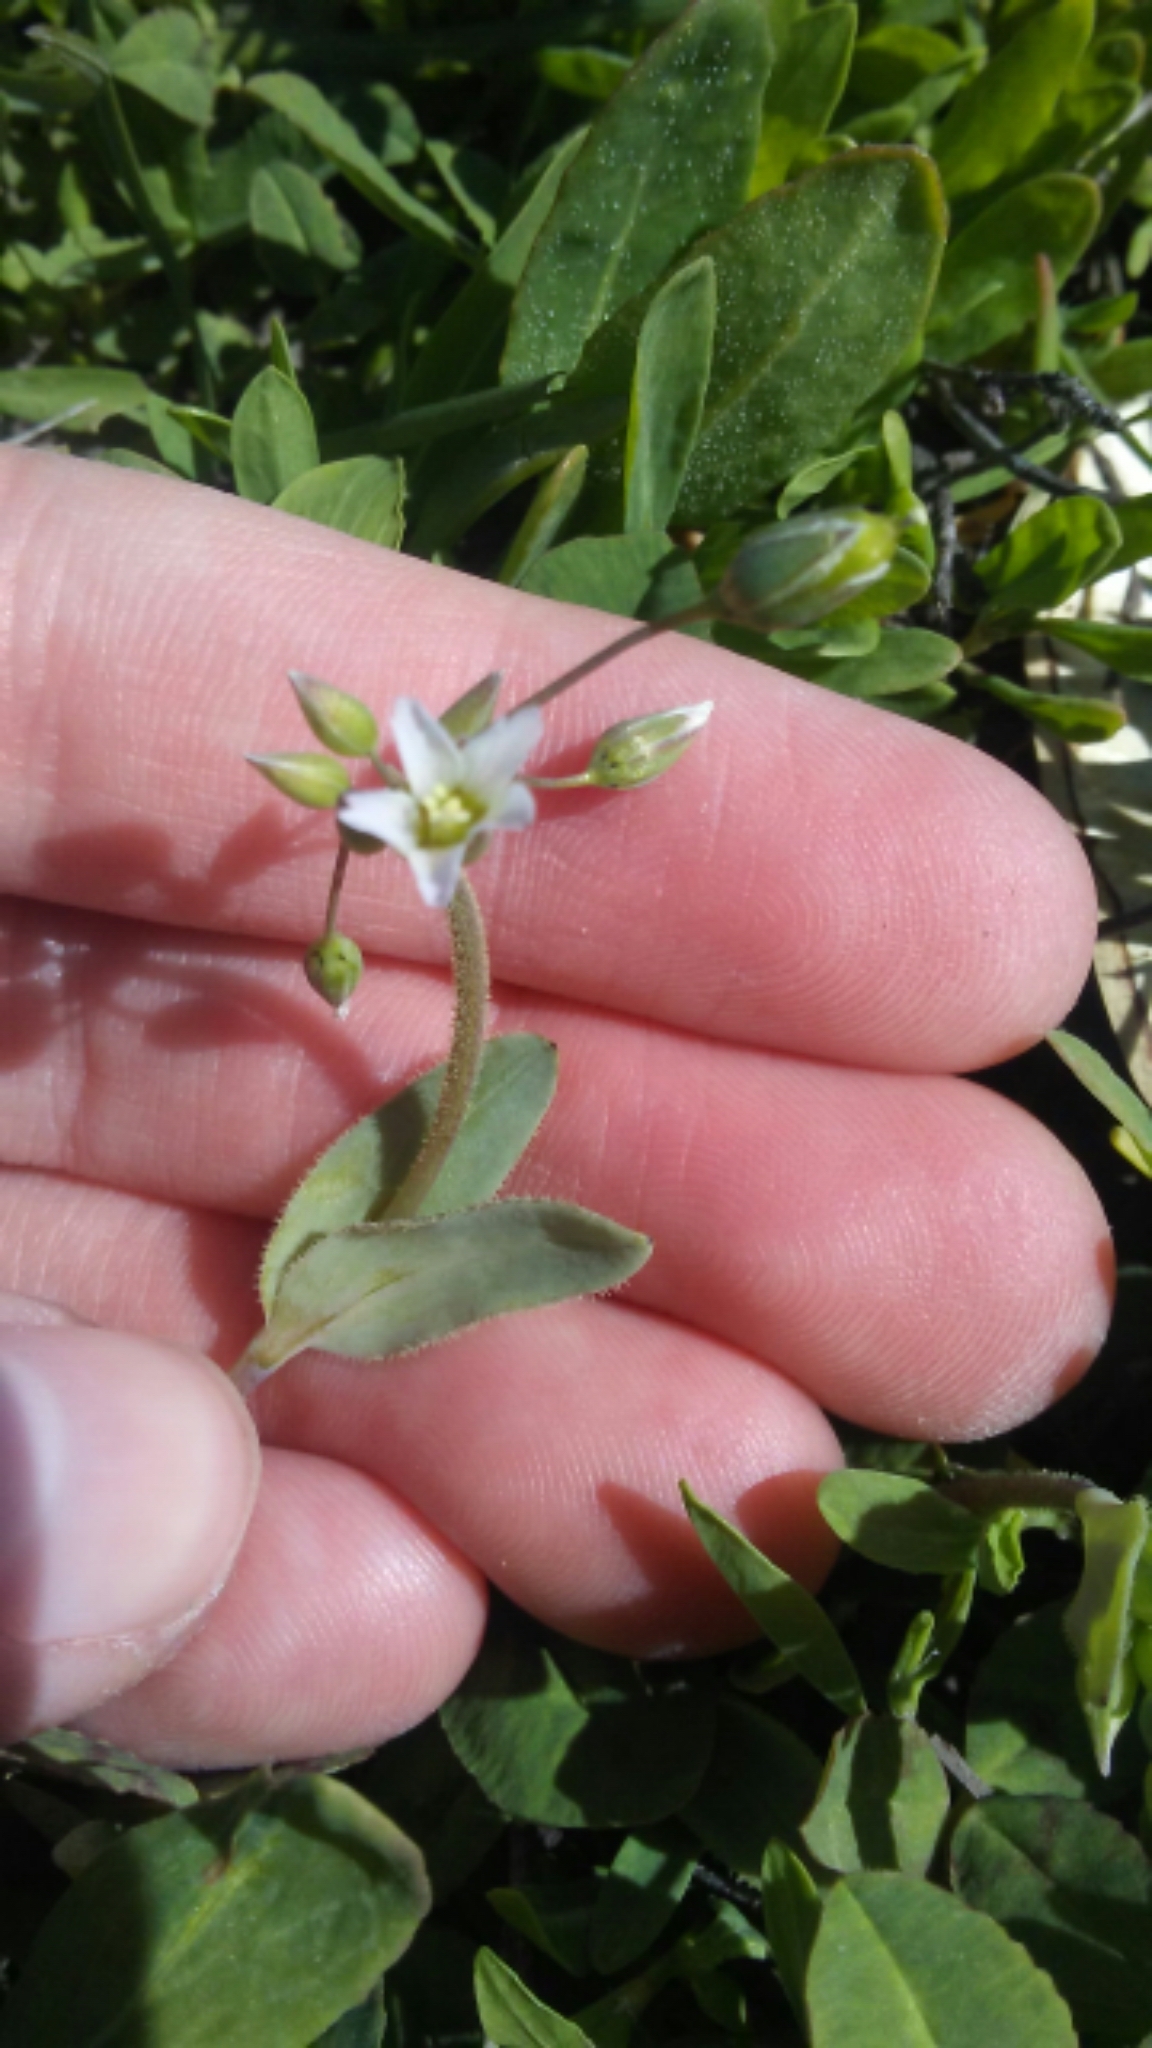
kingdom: Plantae
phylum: Tracheophyta
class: Magnoliopsida
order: Caryophyllales
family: Caryophyllaceae
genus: Holosteum
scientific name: Holosteum umbellatum
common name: Jagged chickweed
